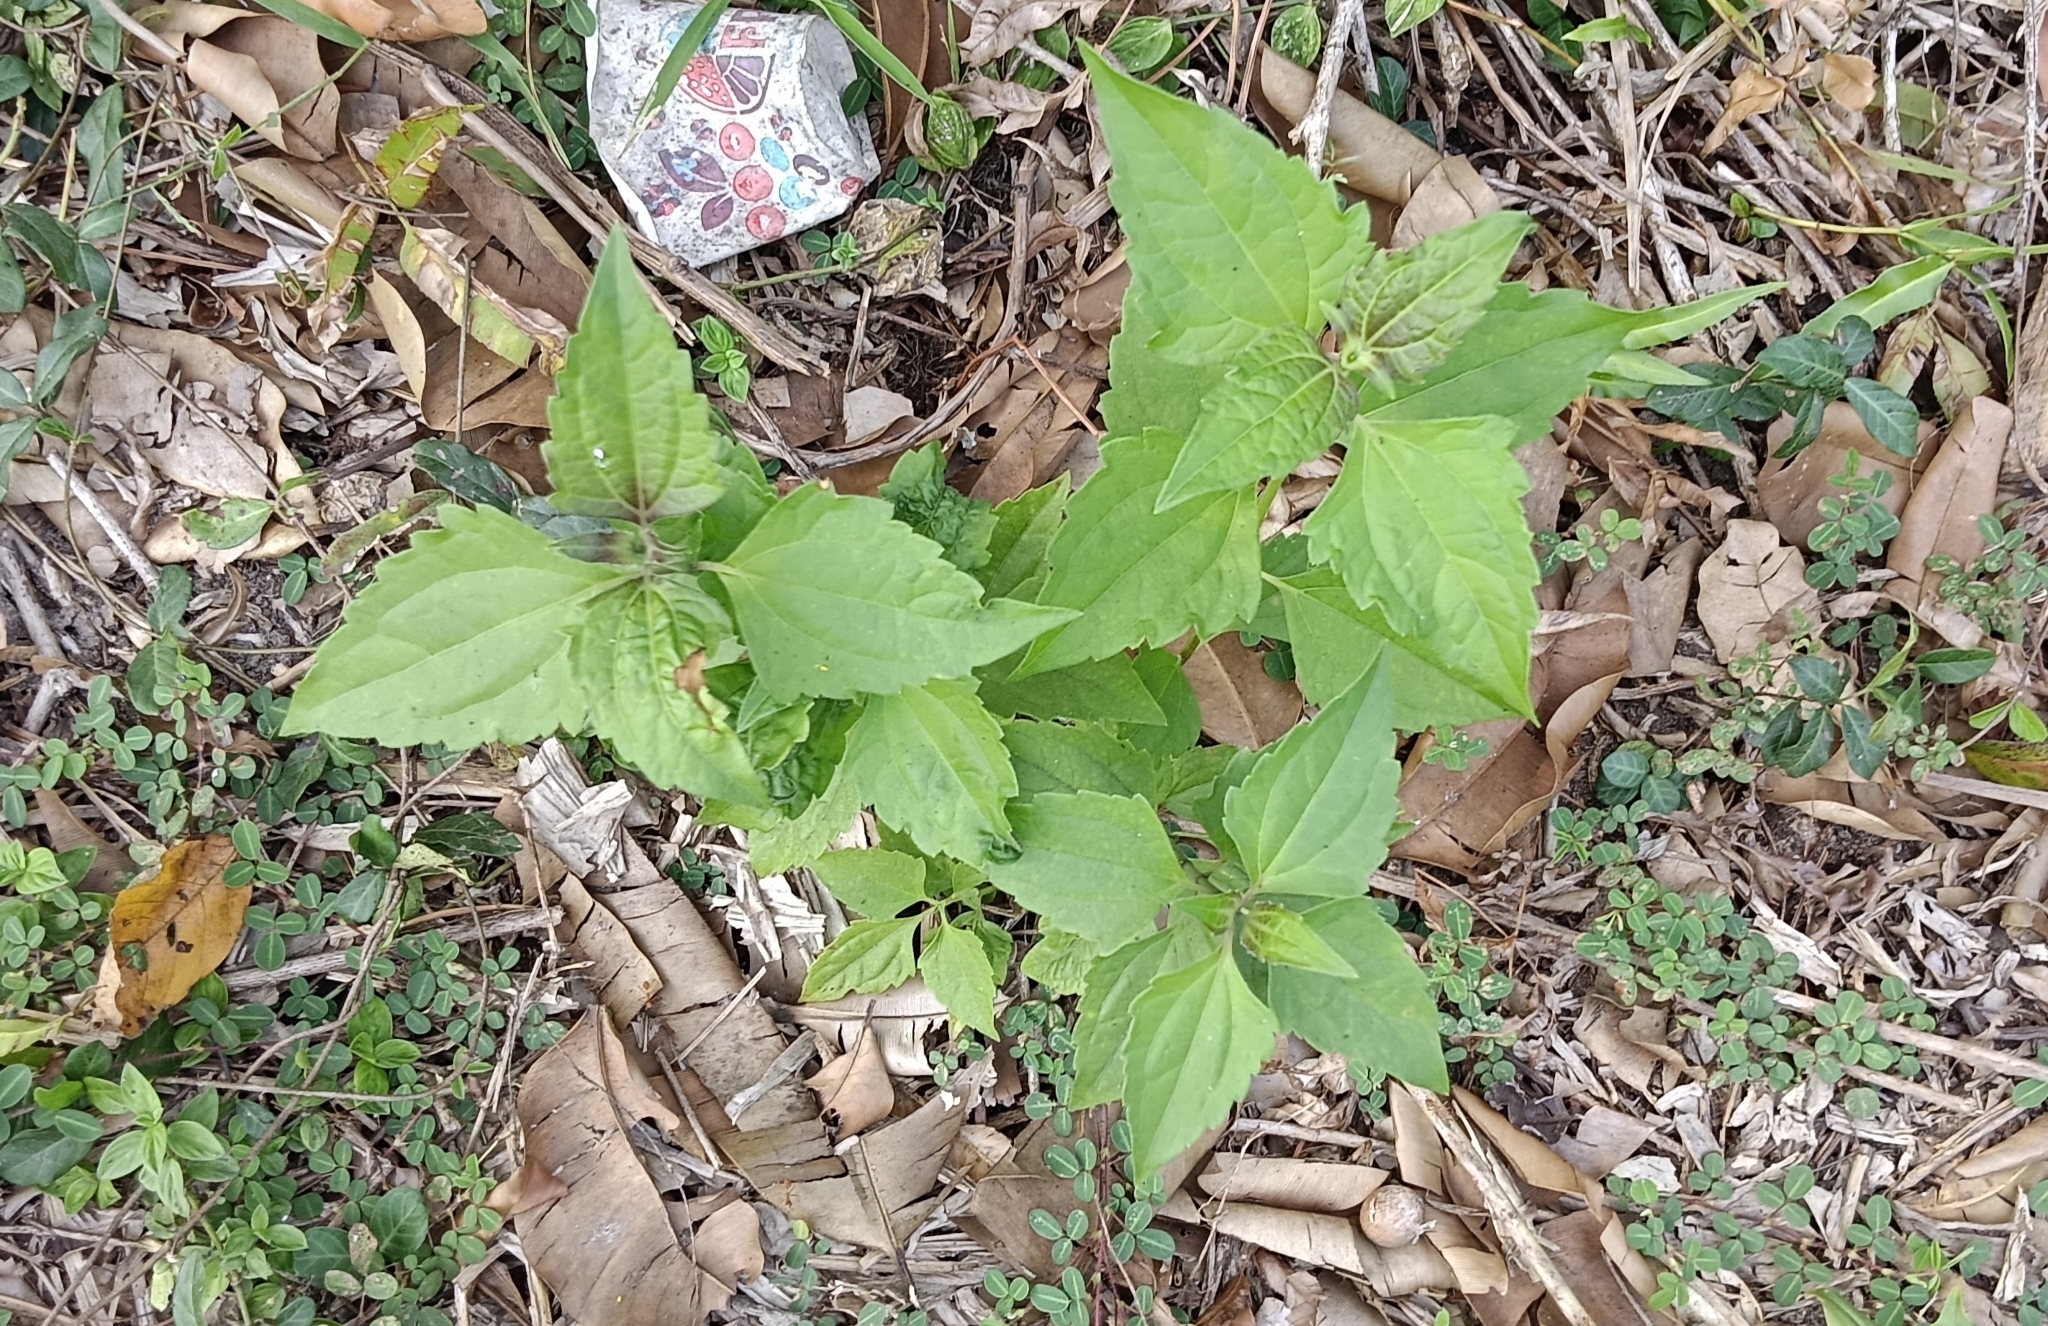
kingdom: Plantae
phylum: Tracheophyta
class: Magnoliopsida
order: Asterales
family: Asteraceae
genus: Chromolaena
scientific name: Chromolaena odorata
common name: Siamweed
